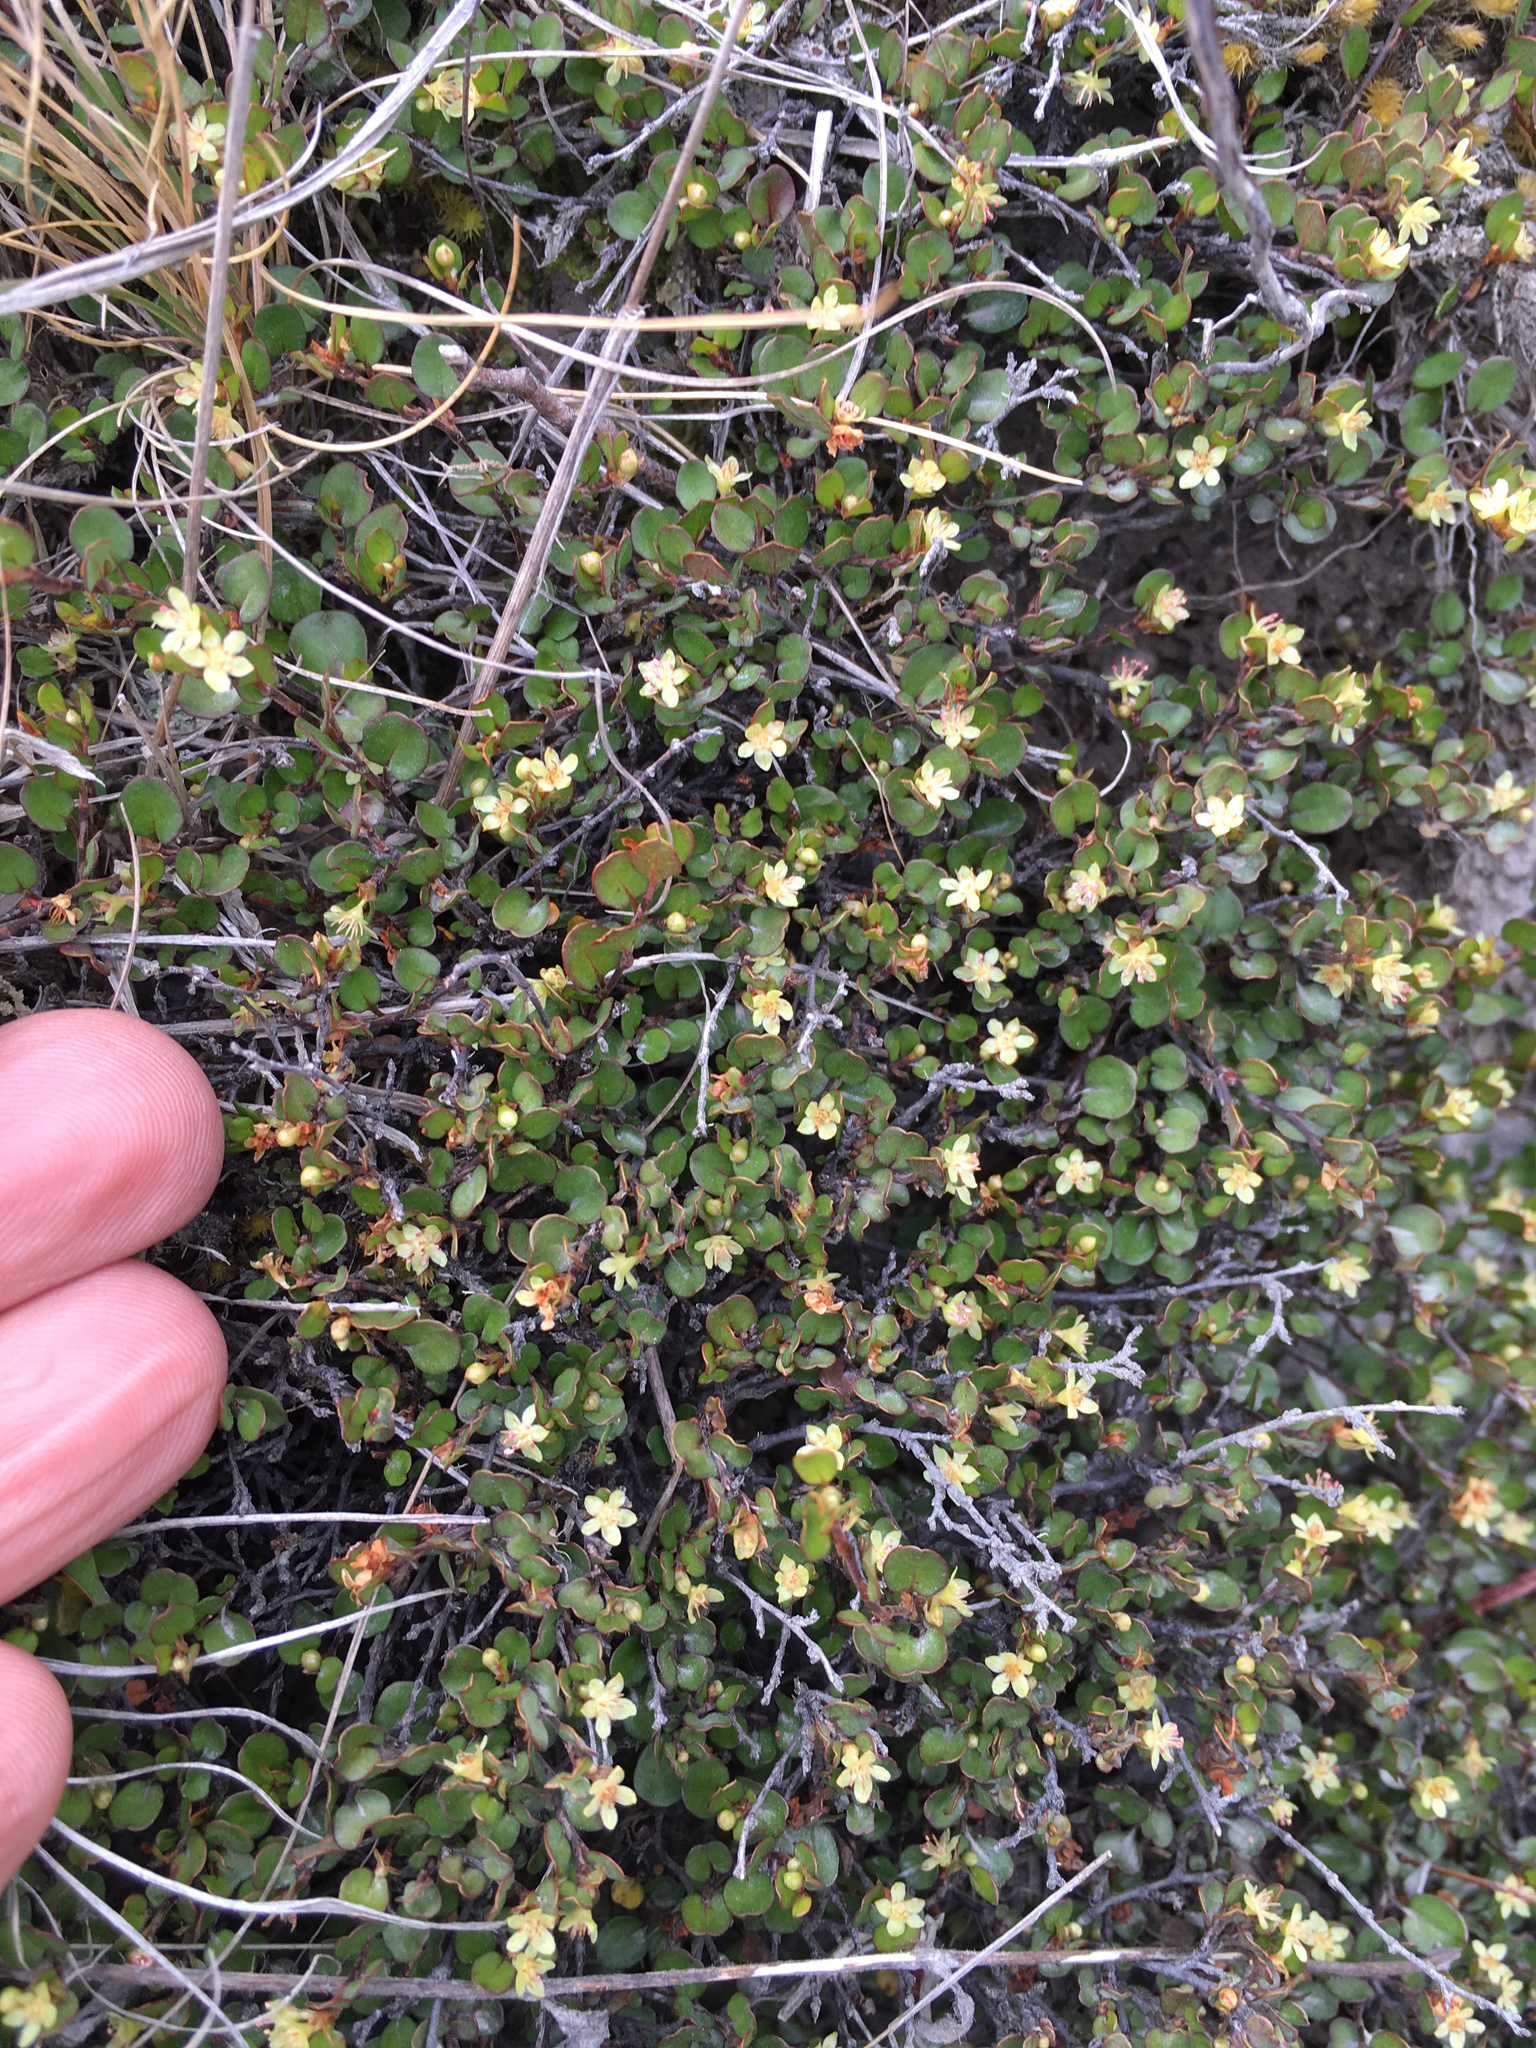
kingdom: Plantae
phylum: Tracheophyta
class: Magnoliopsida
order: Caryophyllales
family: Polygonaceae
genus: Muehlenbeckia
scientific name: Muehlenbeckia axillaris
